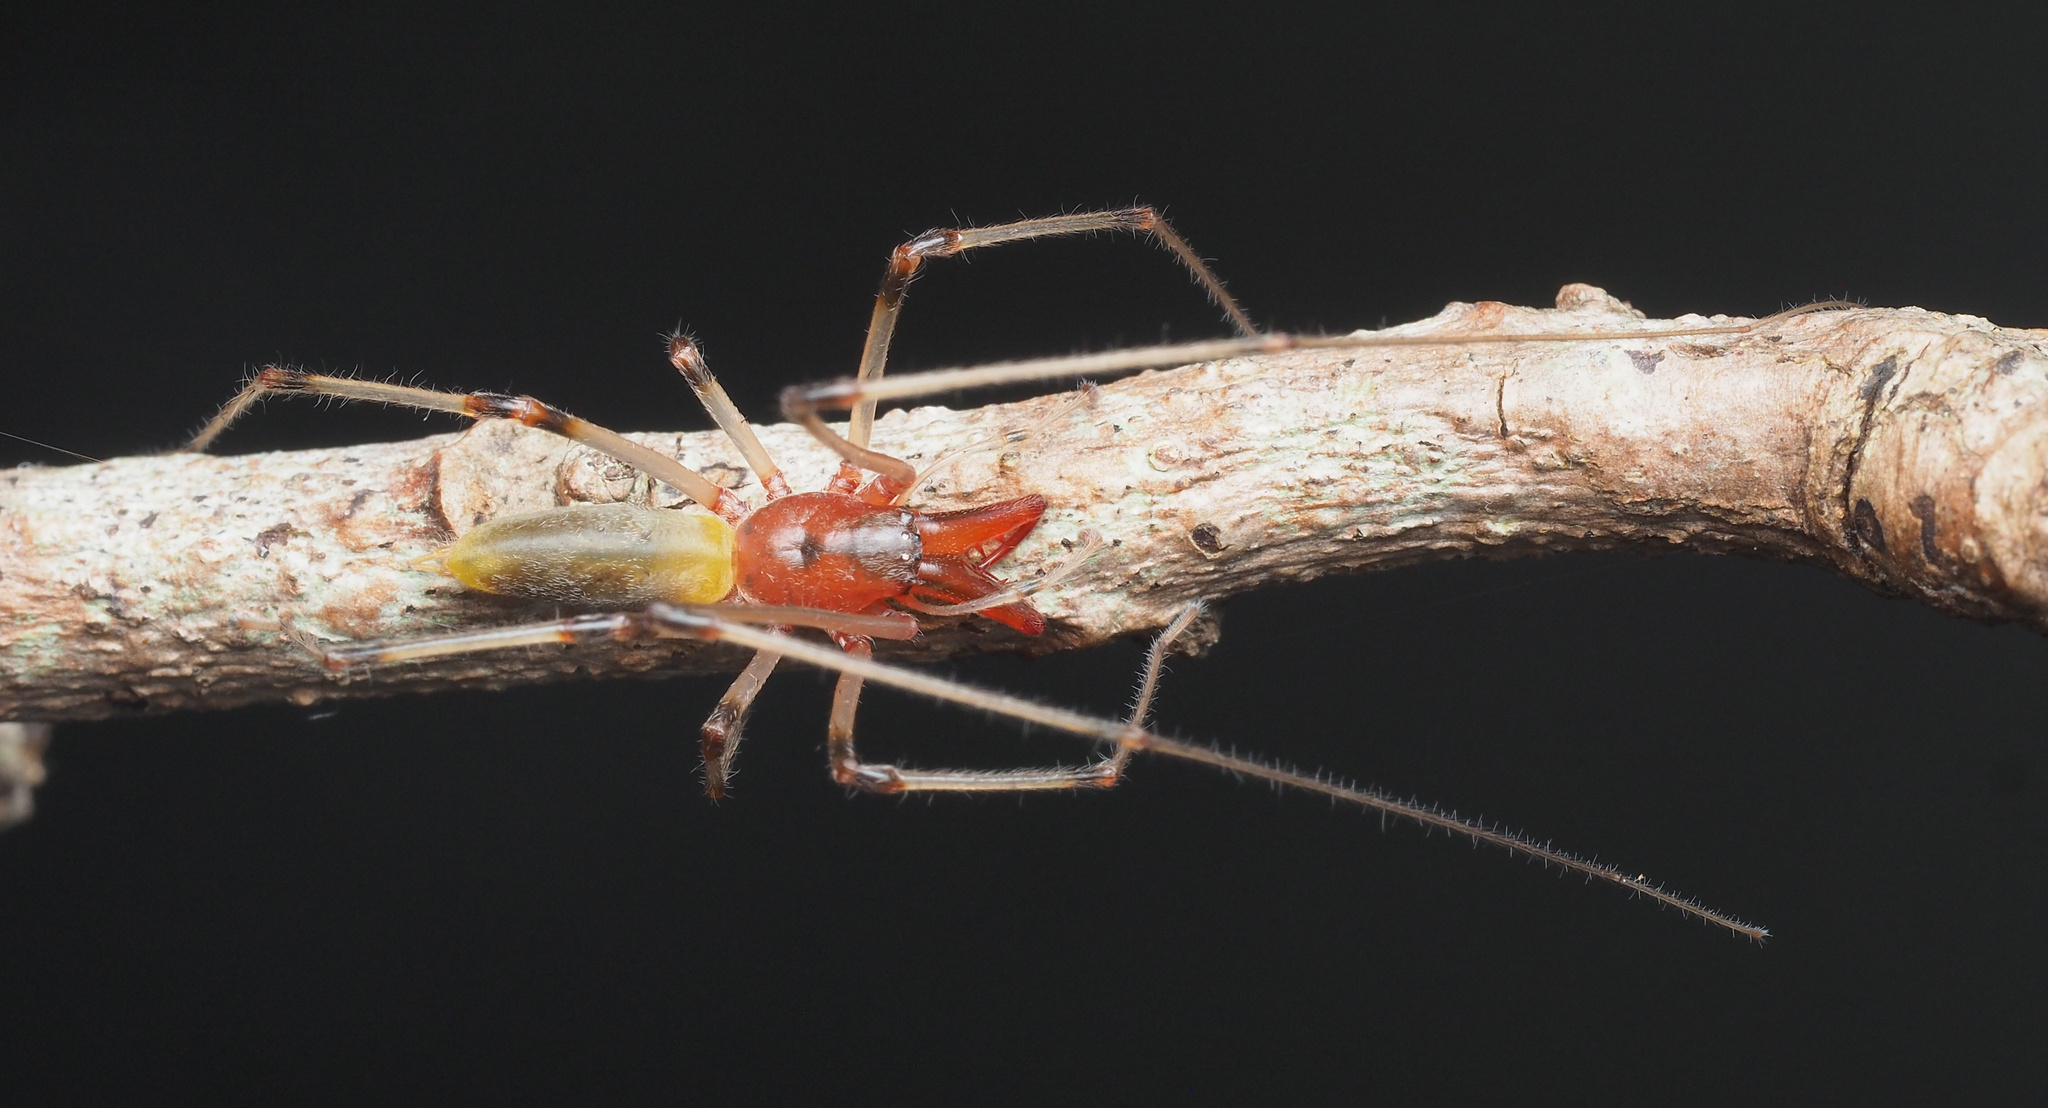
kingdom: Animalia
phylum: Arthropoda
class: Arachnida
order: Araneae
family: Cheiracanthiidae
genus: Calamoneta
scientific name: Calamoneta
